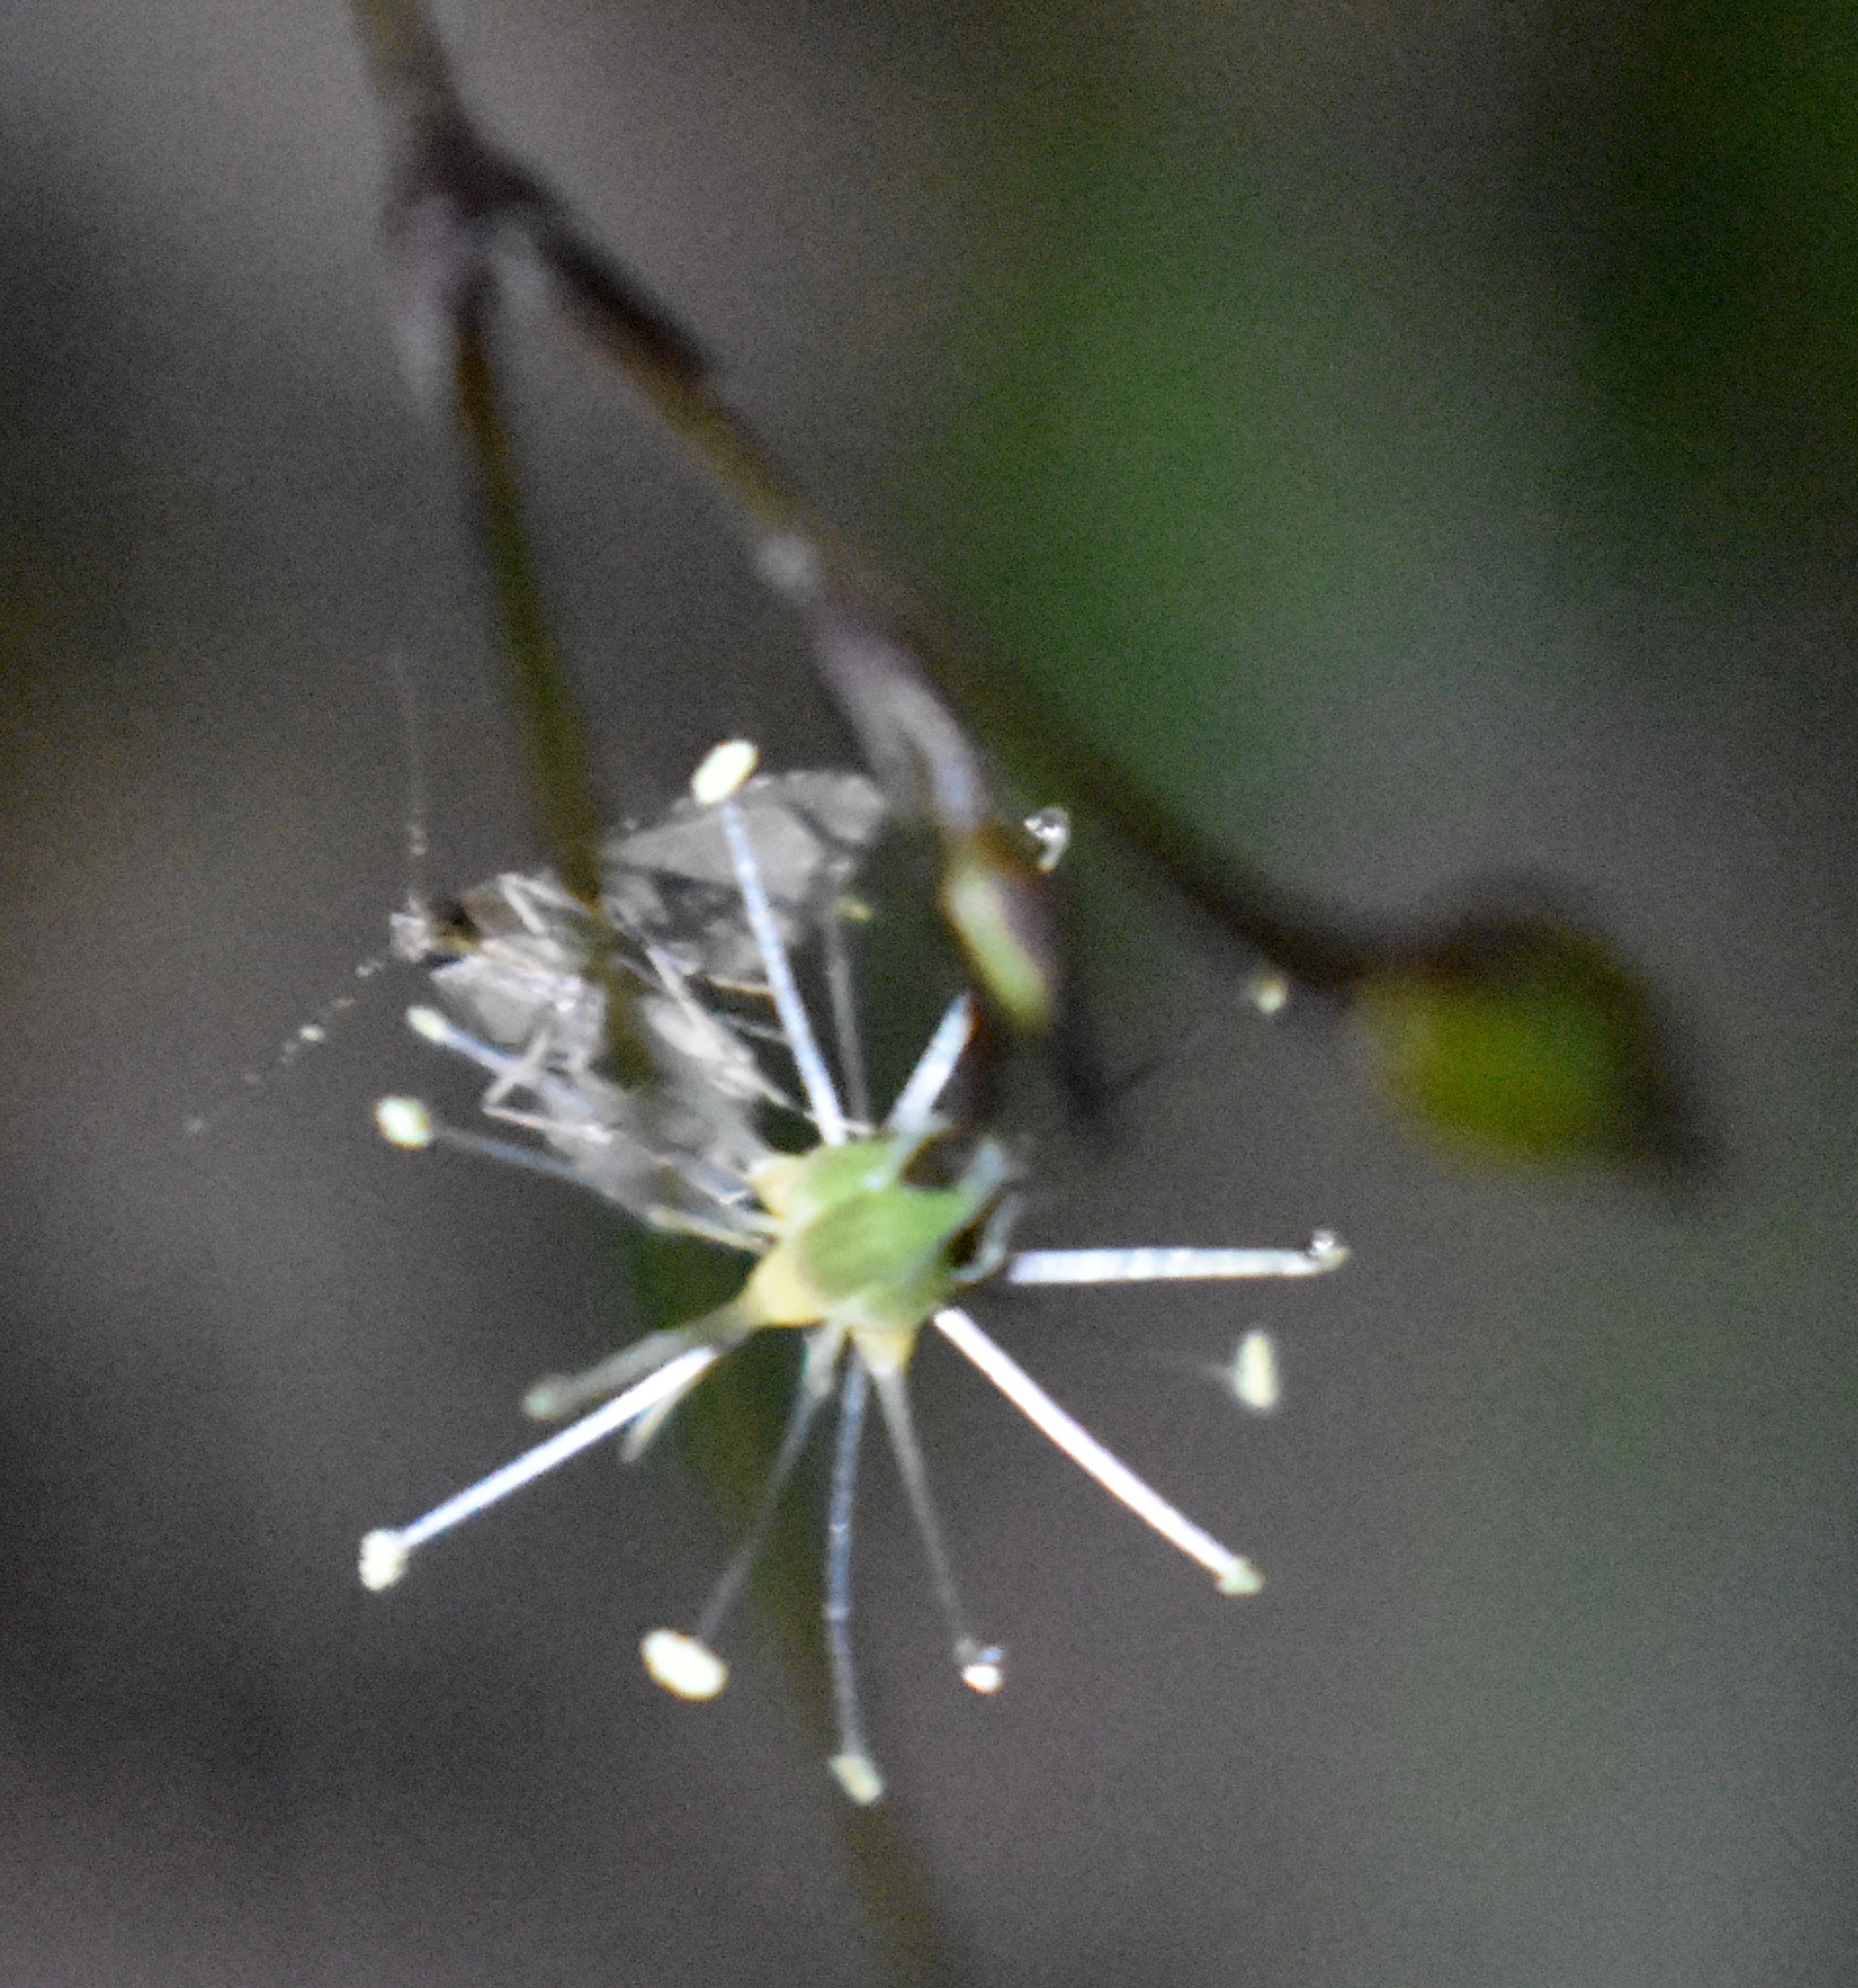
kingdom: Animalia
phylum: Arthropoda
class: Insecta
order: Lepidoptera
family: Erebidae
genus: Pseudoschrankia
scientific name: Pseudoschrankia brevipalpis
